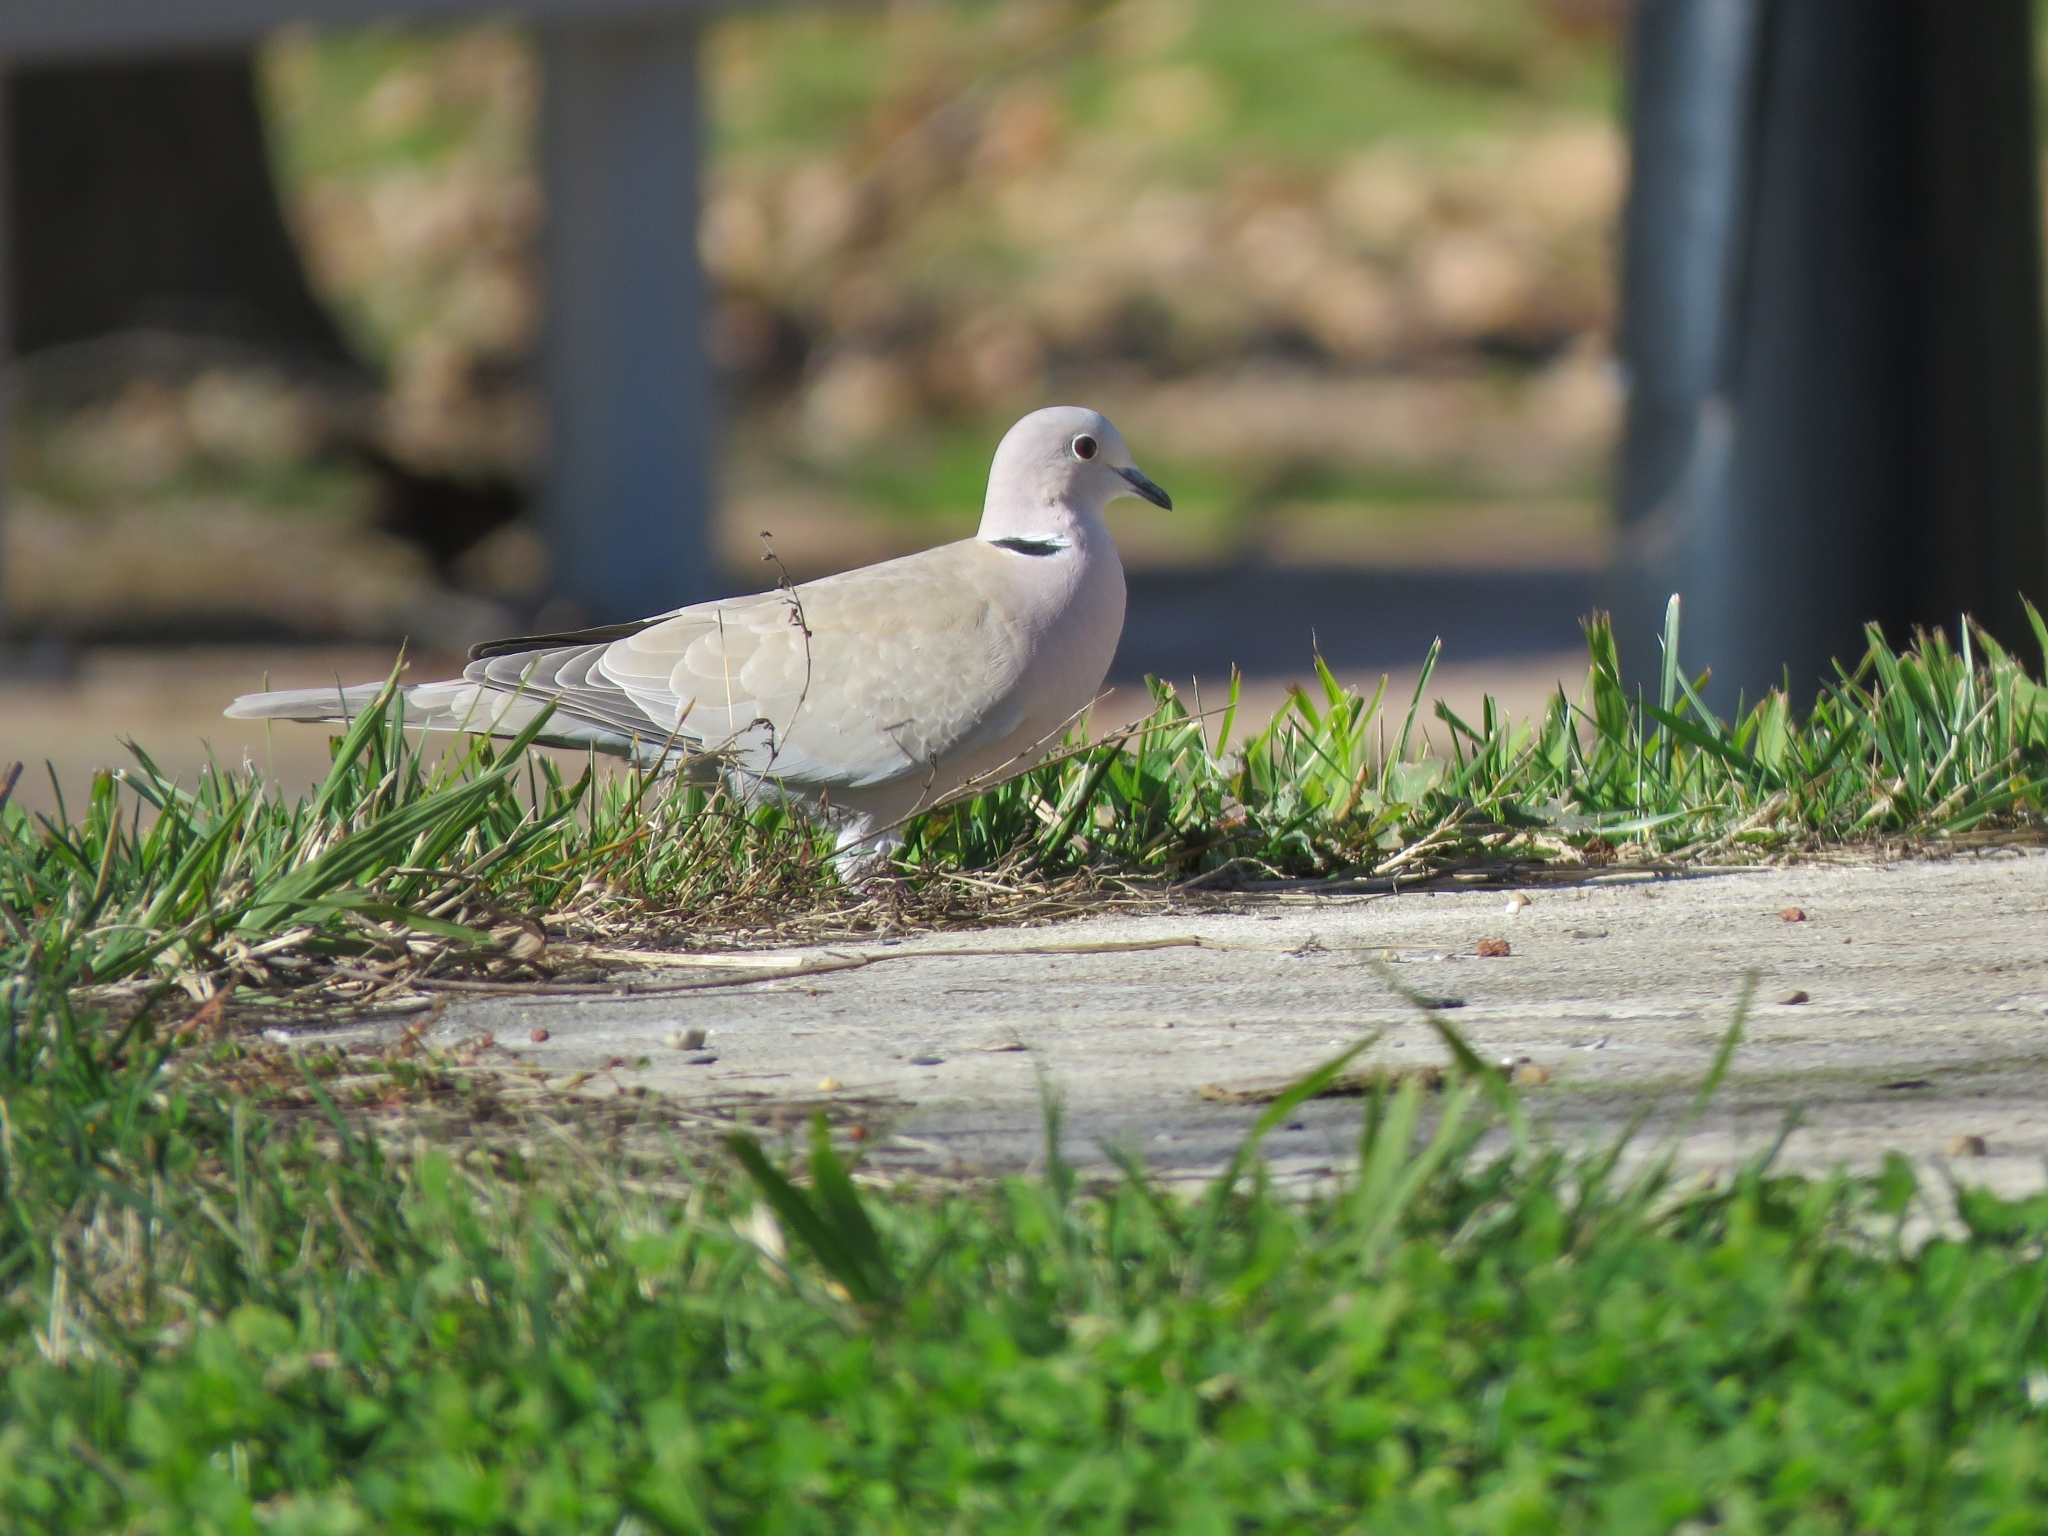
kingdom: Animalia
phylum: Chordata
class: Aves
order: Columbiformes
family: Columbidae
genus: Streptopelia
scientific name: Streptopelia decaocto
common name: Eurasian collared dove
